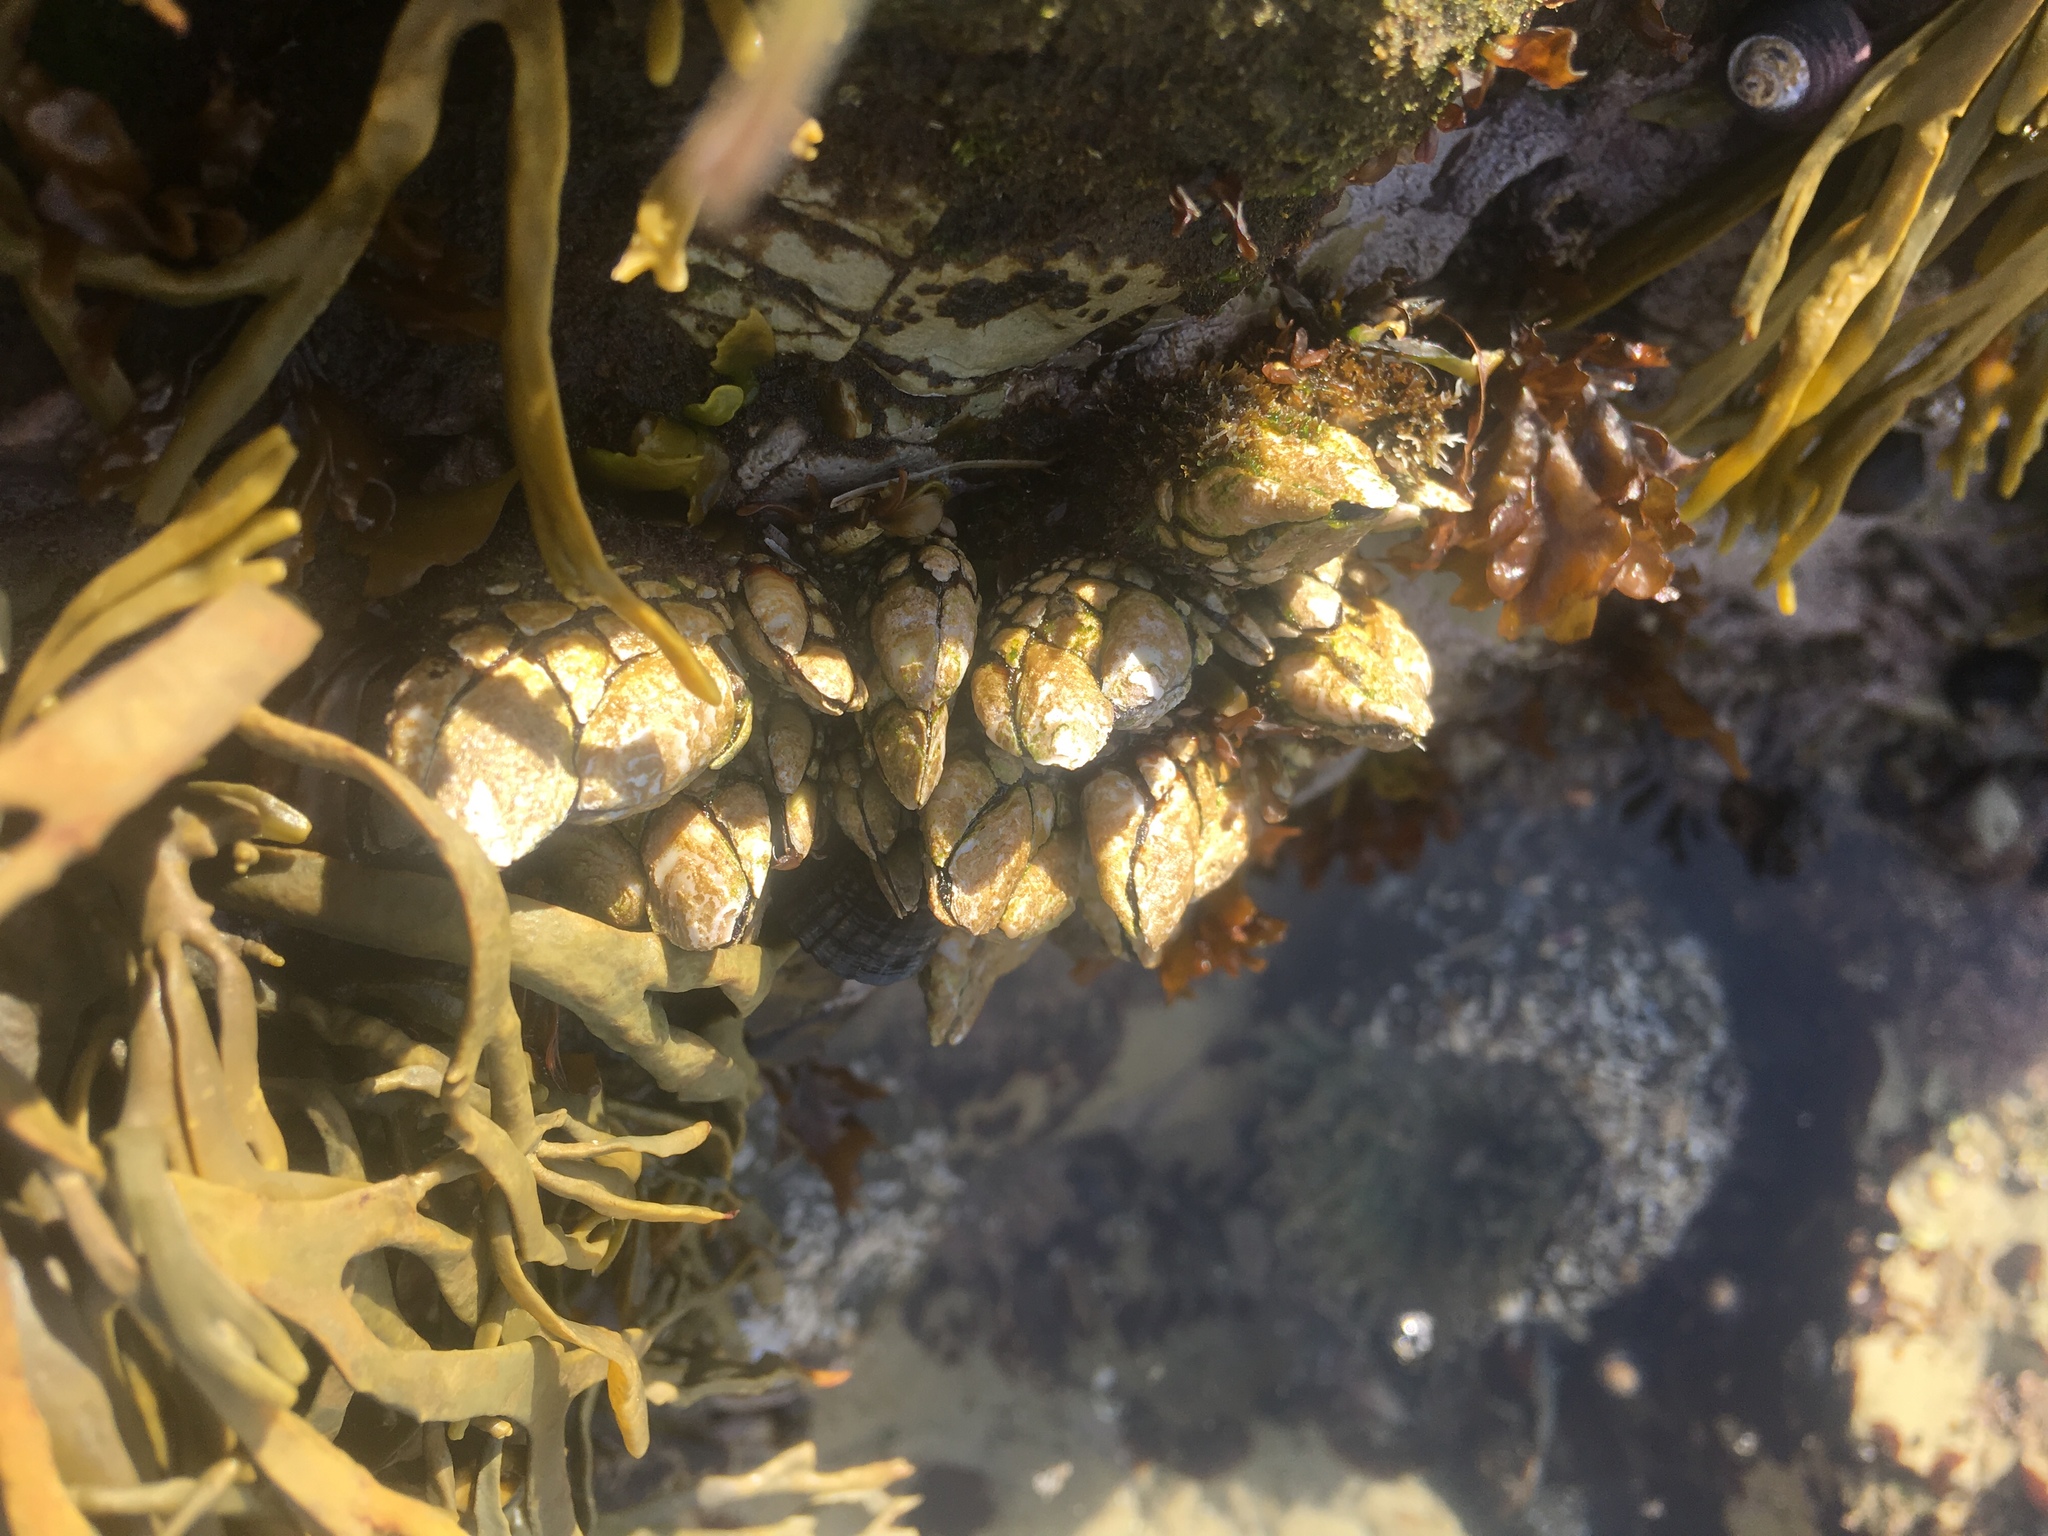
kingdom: Animalia
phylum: Arthropoda
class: Maxillopoda
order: Pedunculata
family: Pollicipedidae
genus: Pollicipes
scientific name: Pollicipes polymerus
